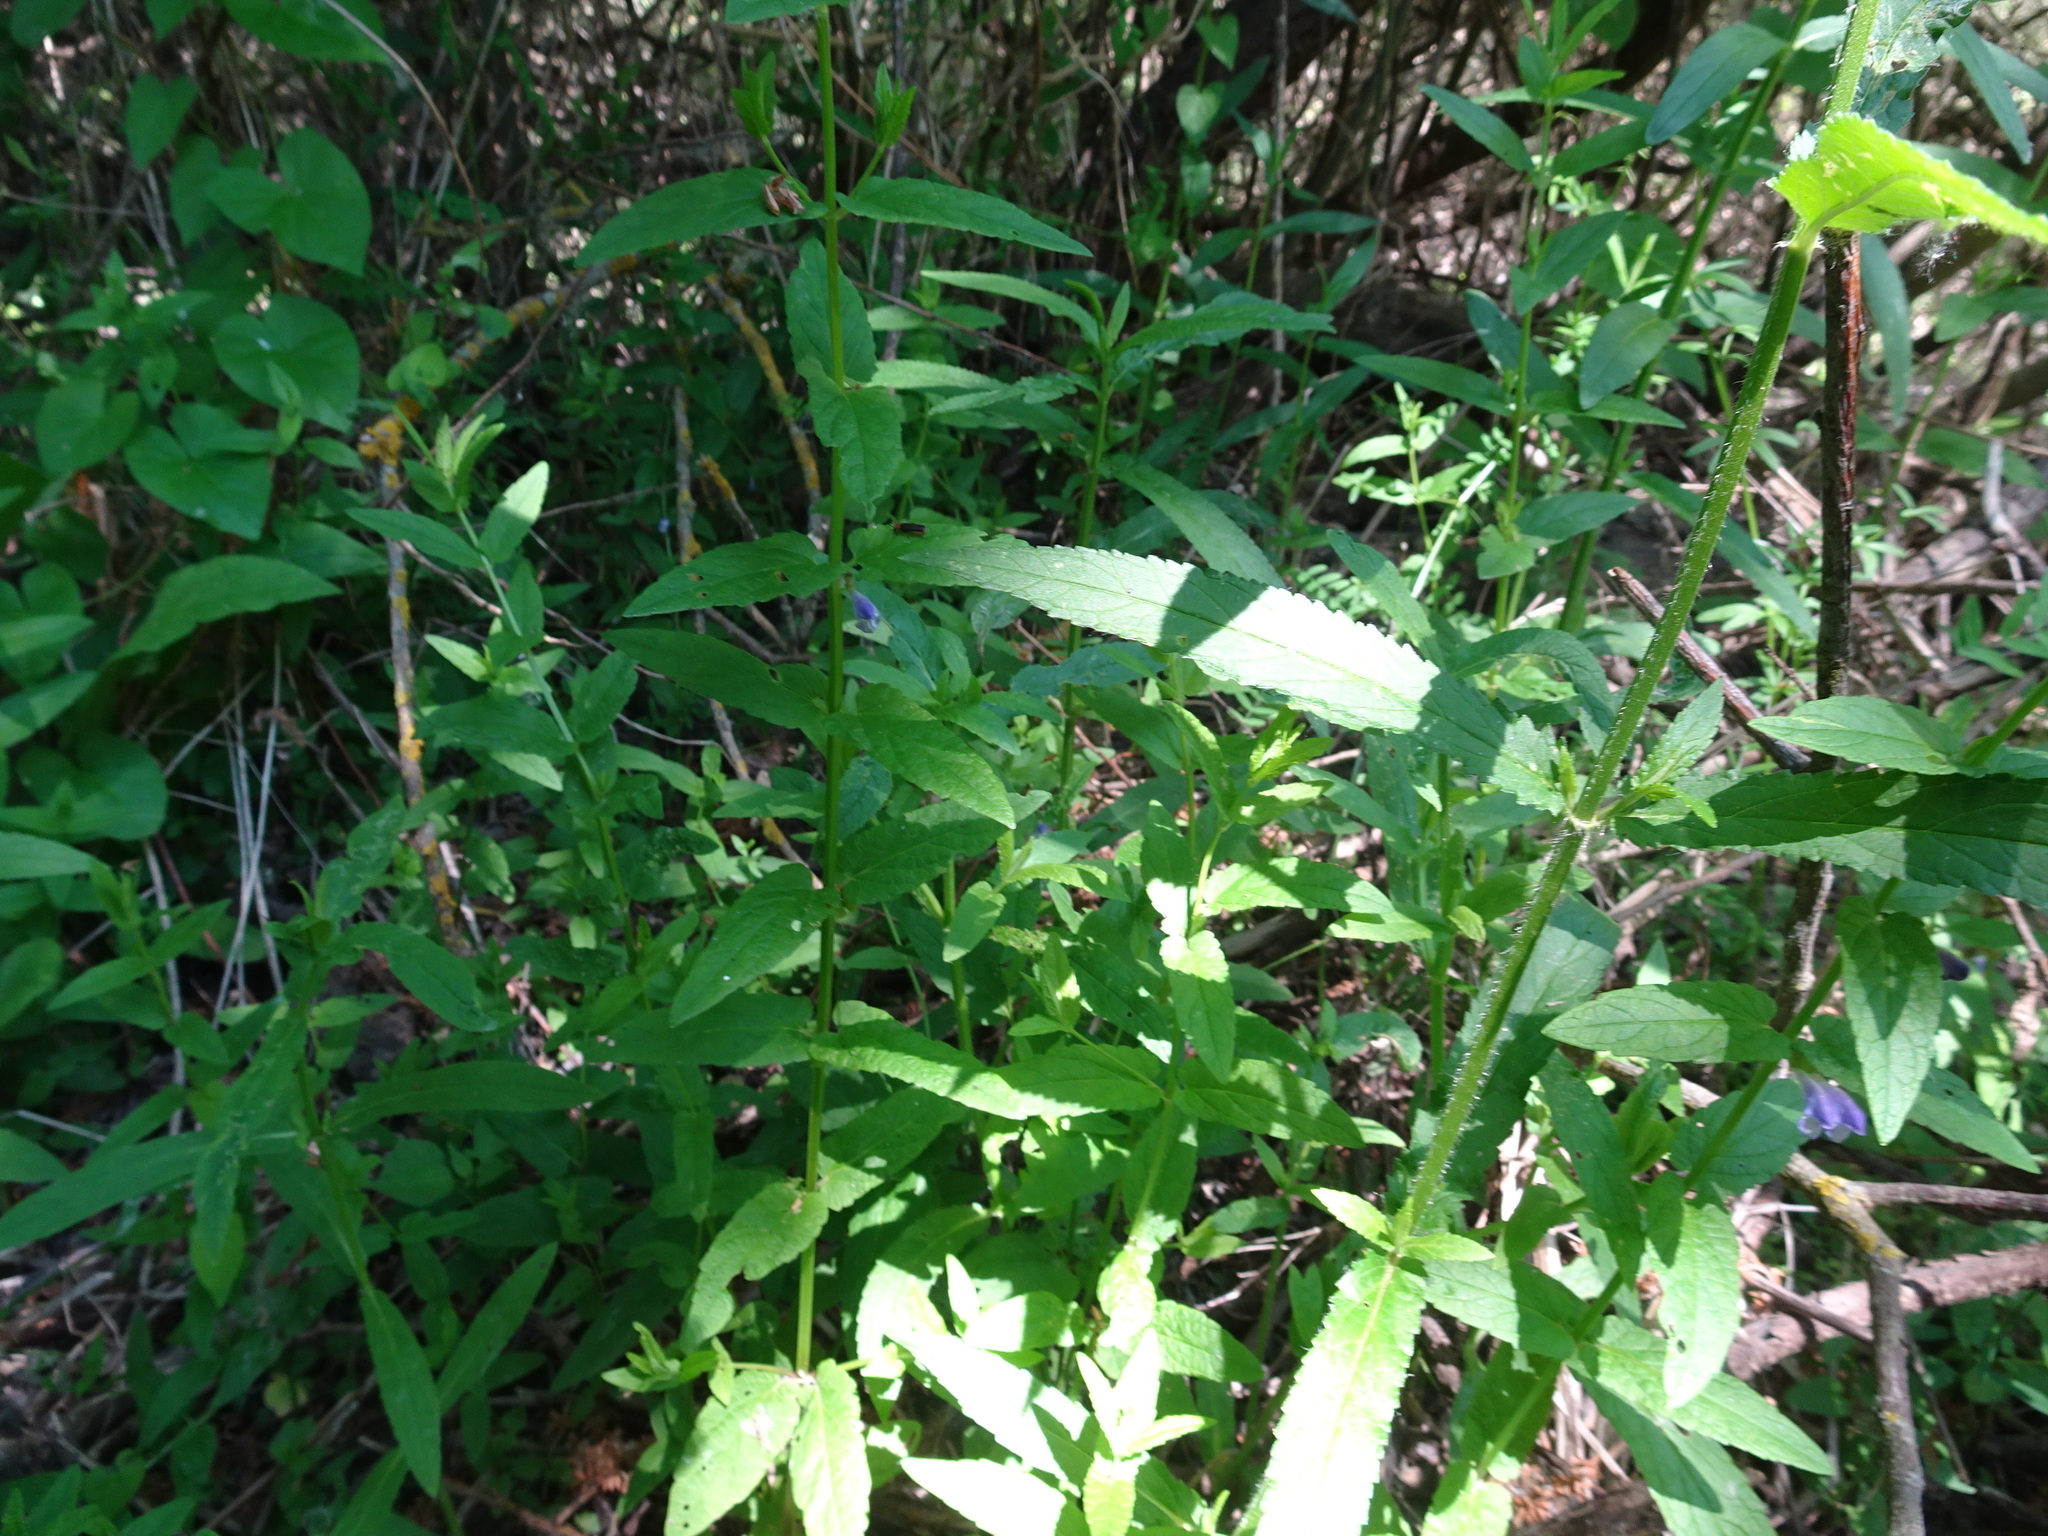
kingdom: Plantae
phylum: Tracheophyta
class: Magnoliopsida
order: Lamiales
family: Lamiaceae
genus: Scutellaria
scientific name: Scutellaria galericulata
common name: Skullcap
